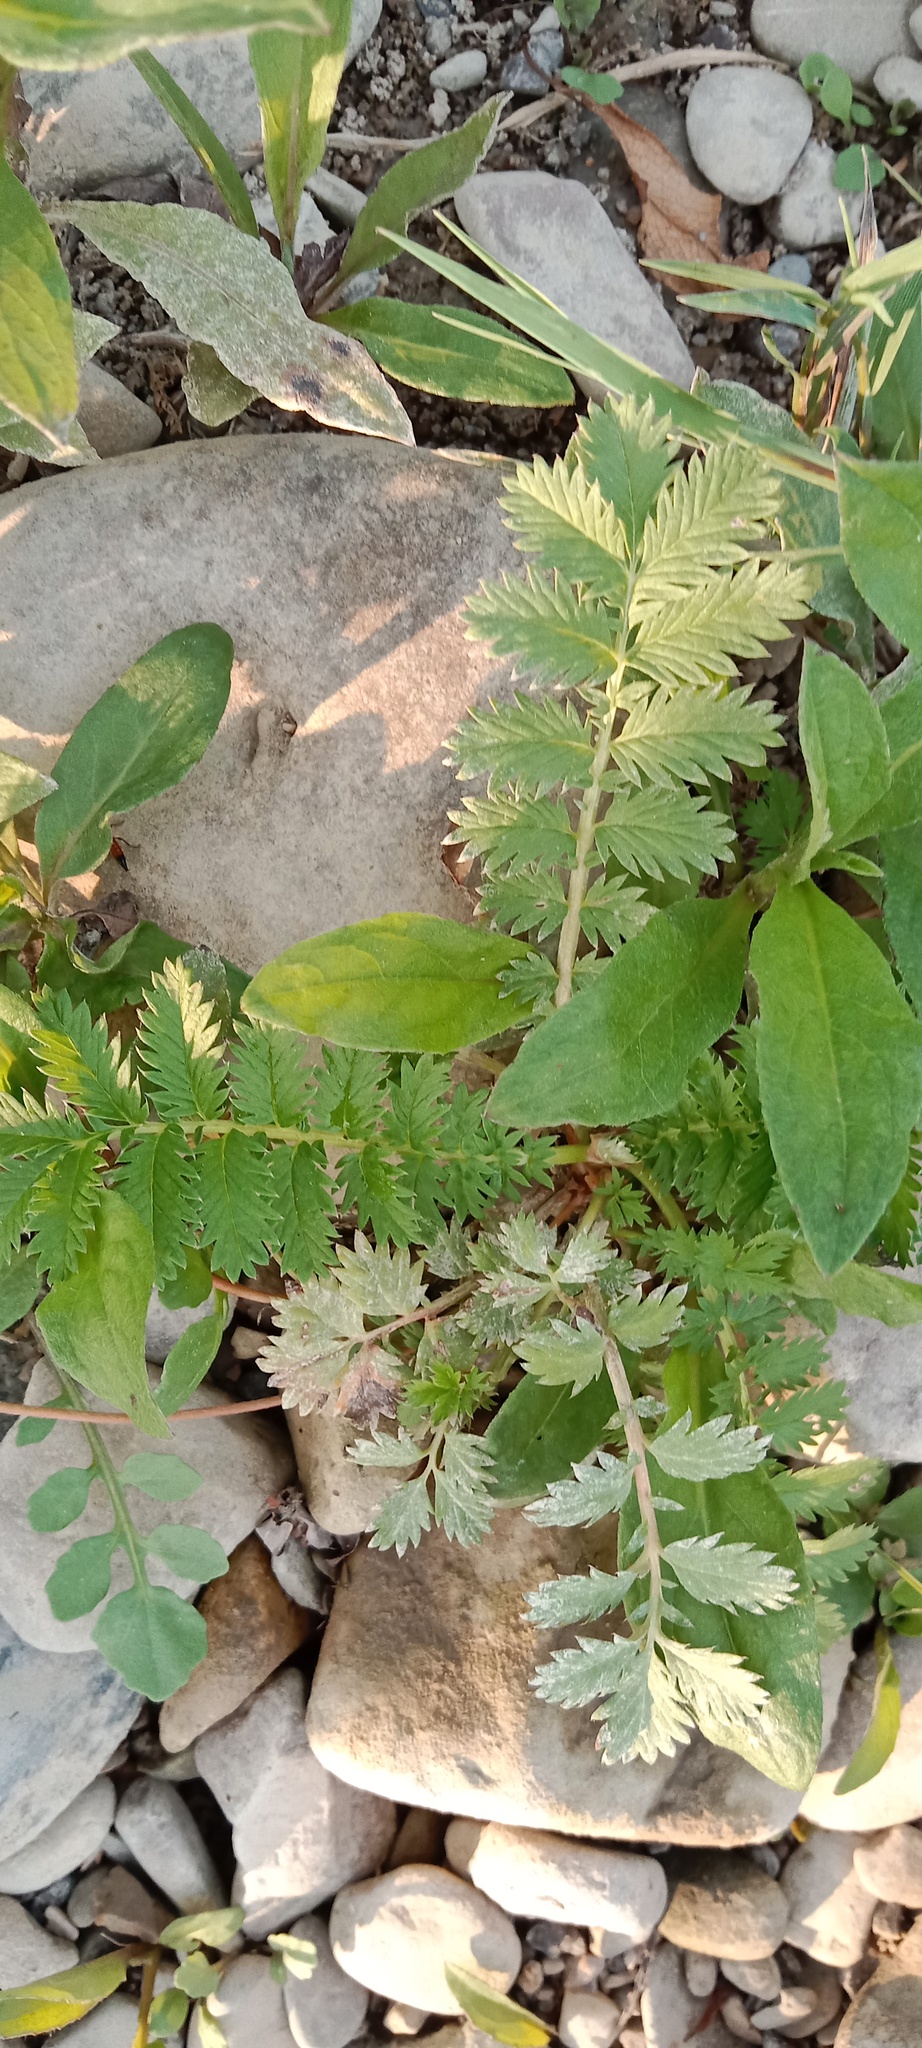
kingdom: Plantae
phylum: Tracheophyta
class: Magnoliopsida
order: Rosales
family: Rosaceae
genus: Argentina
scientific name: Argentina anserina
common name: Common silverweed
